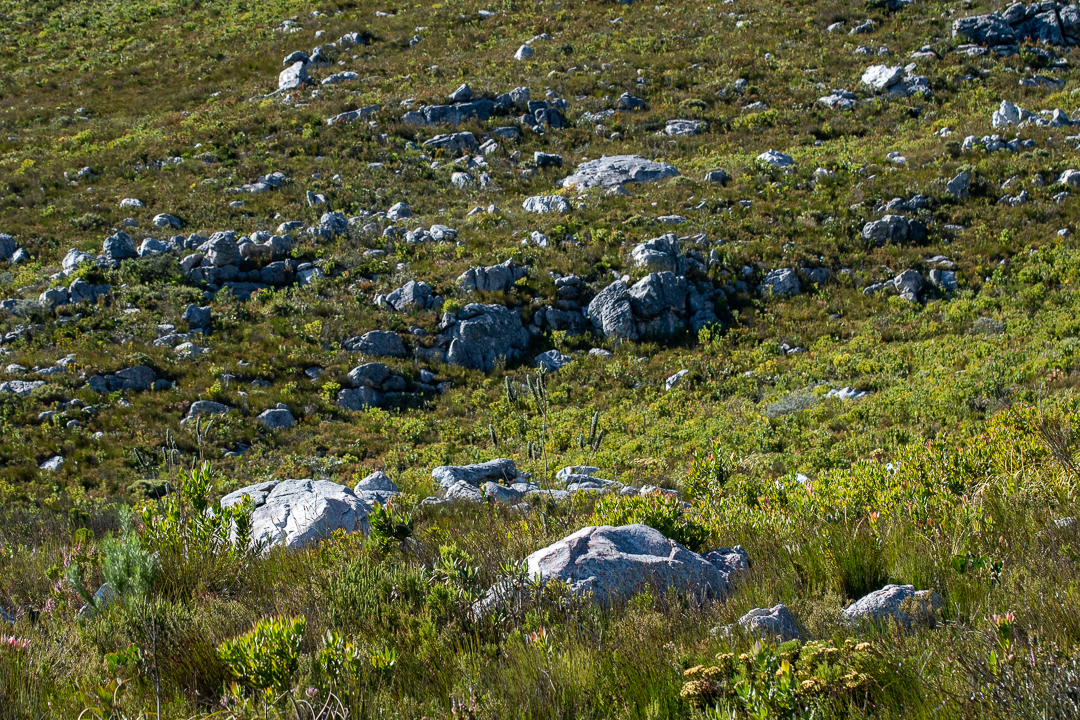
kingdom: Plantae
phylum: Tracheophyta
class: Magnoliopsida
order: Fabales
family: Fabaceae
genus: Liparia
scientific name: Liparia vestita
